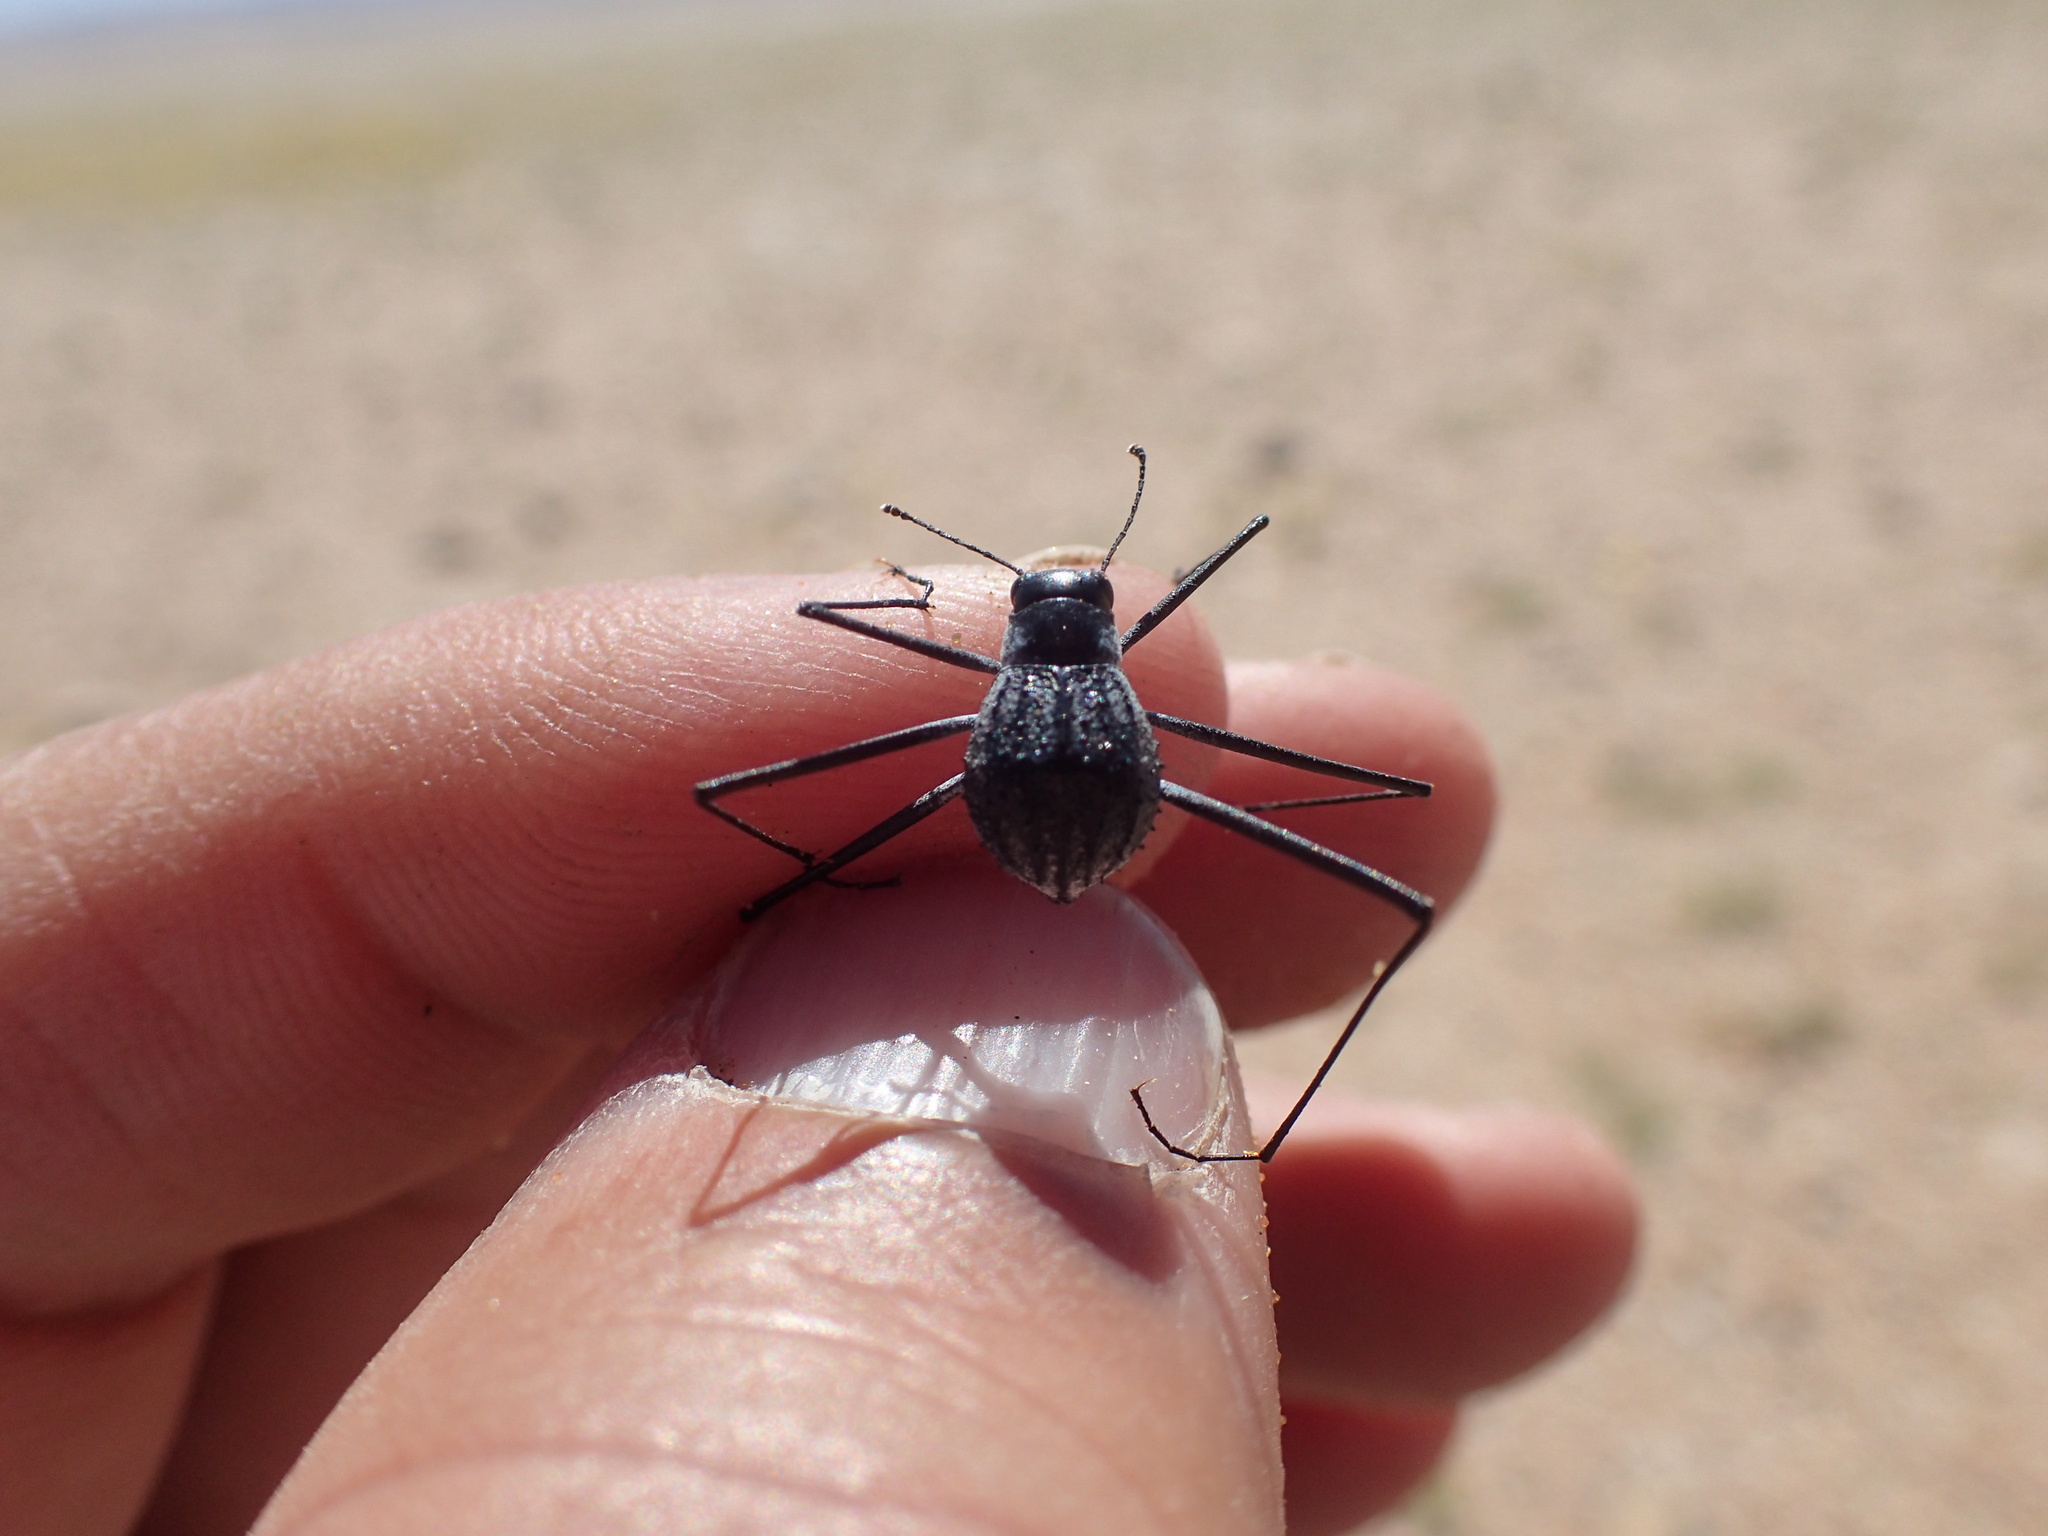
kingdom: Animalia
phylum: Arthropoda
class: Insecta
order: Coleoptera
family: Tenebrionidae
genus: Stenocara
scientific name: Stenocara
